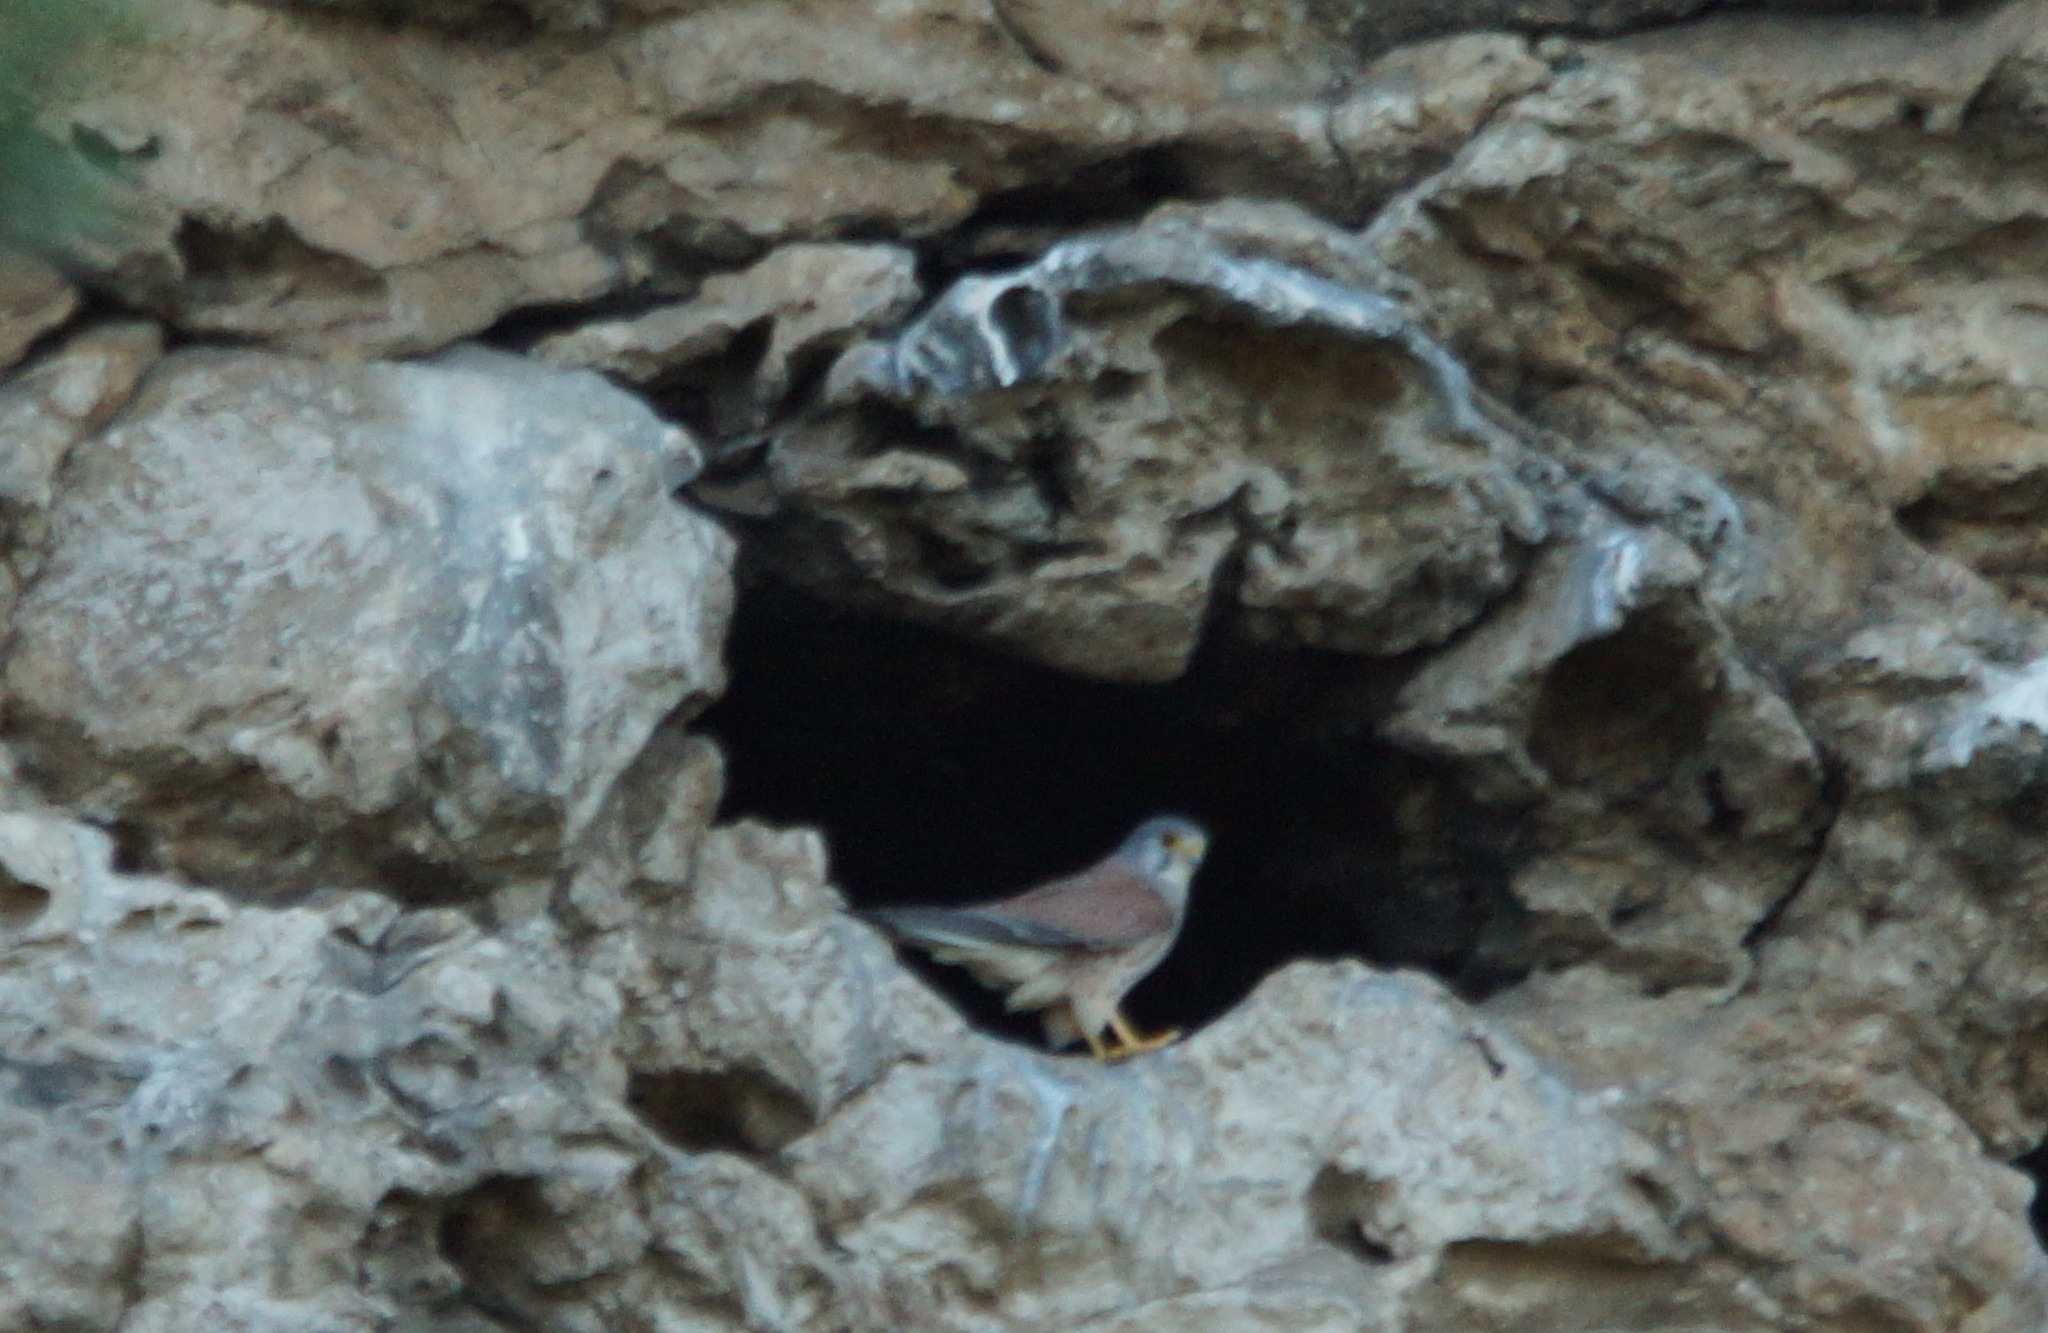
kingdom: Animalia
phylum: Chordata
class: Aves
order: Falconiformes
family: Falconidae
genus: Falco
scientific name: Falco tinnunculus
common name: Common kestrel
